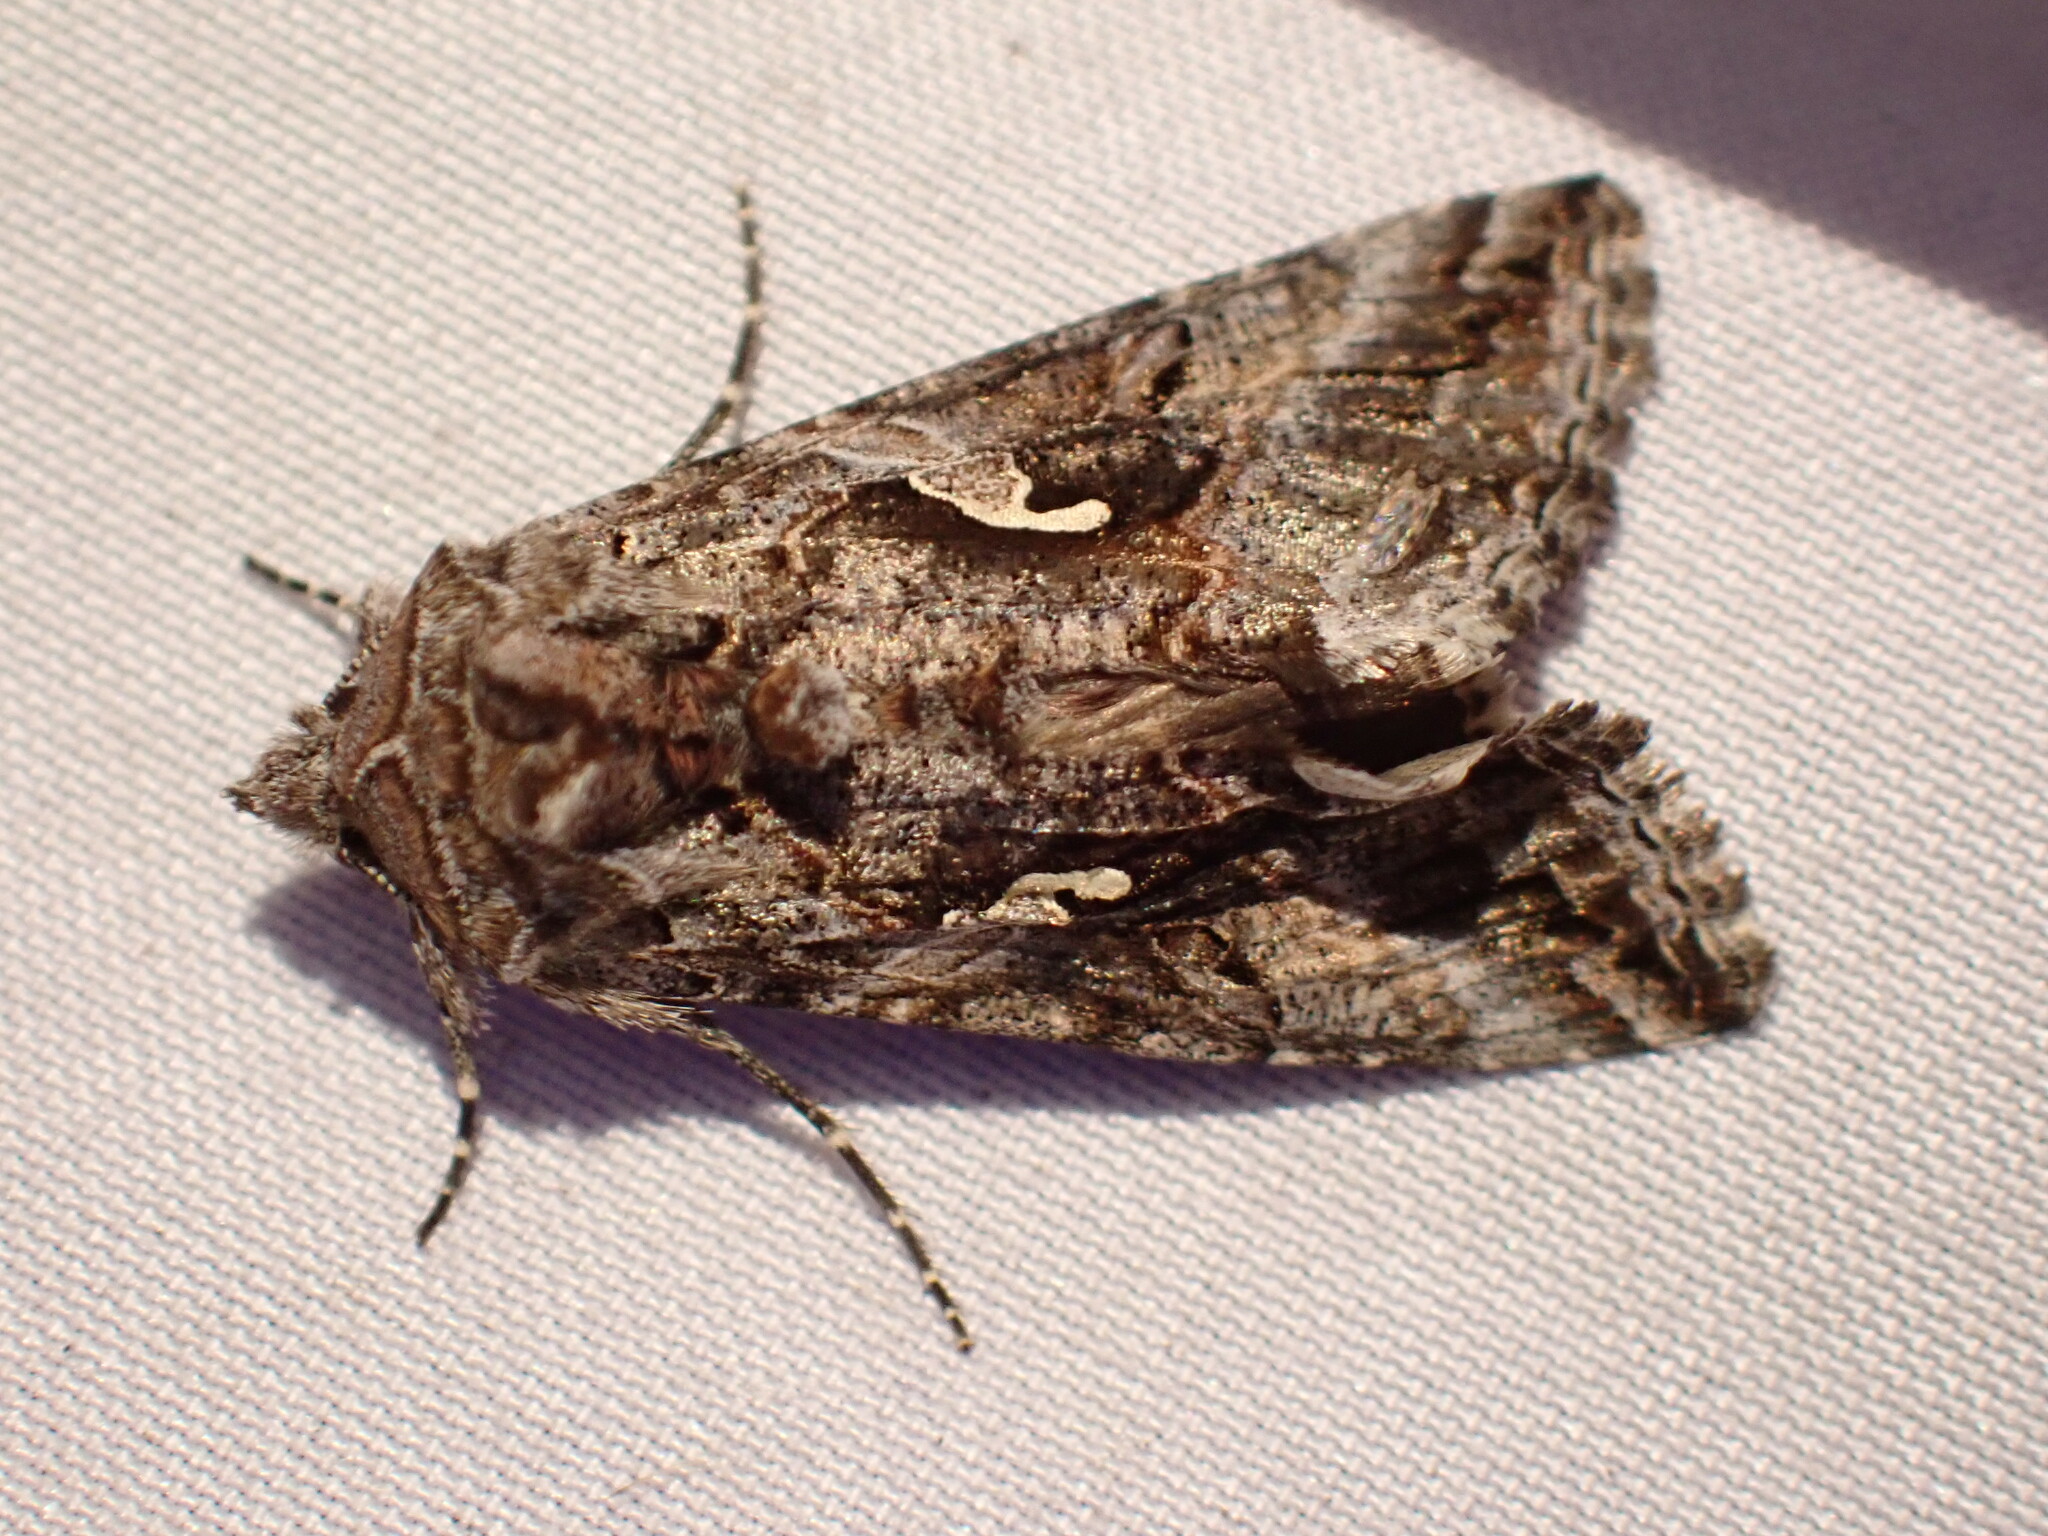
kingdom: Animalia
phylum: Arthropoda
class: Insecta
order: Lepidoptera
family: Noctuidae
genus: Autographa
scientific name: Autographa californica
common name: Alfalfa looper
